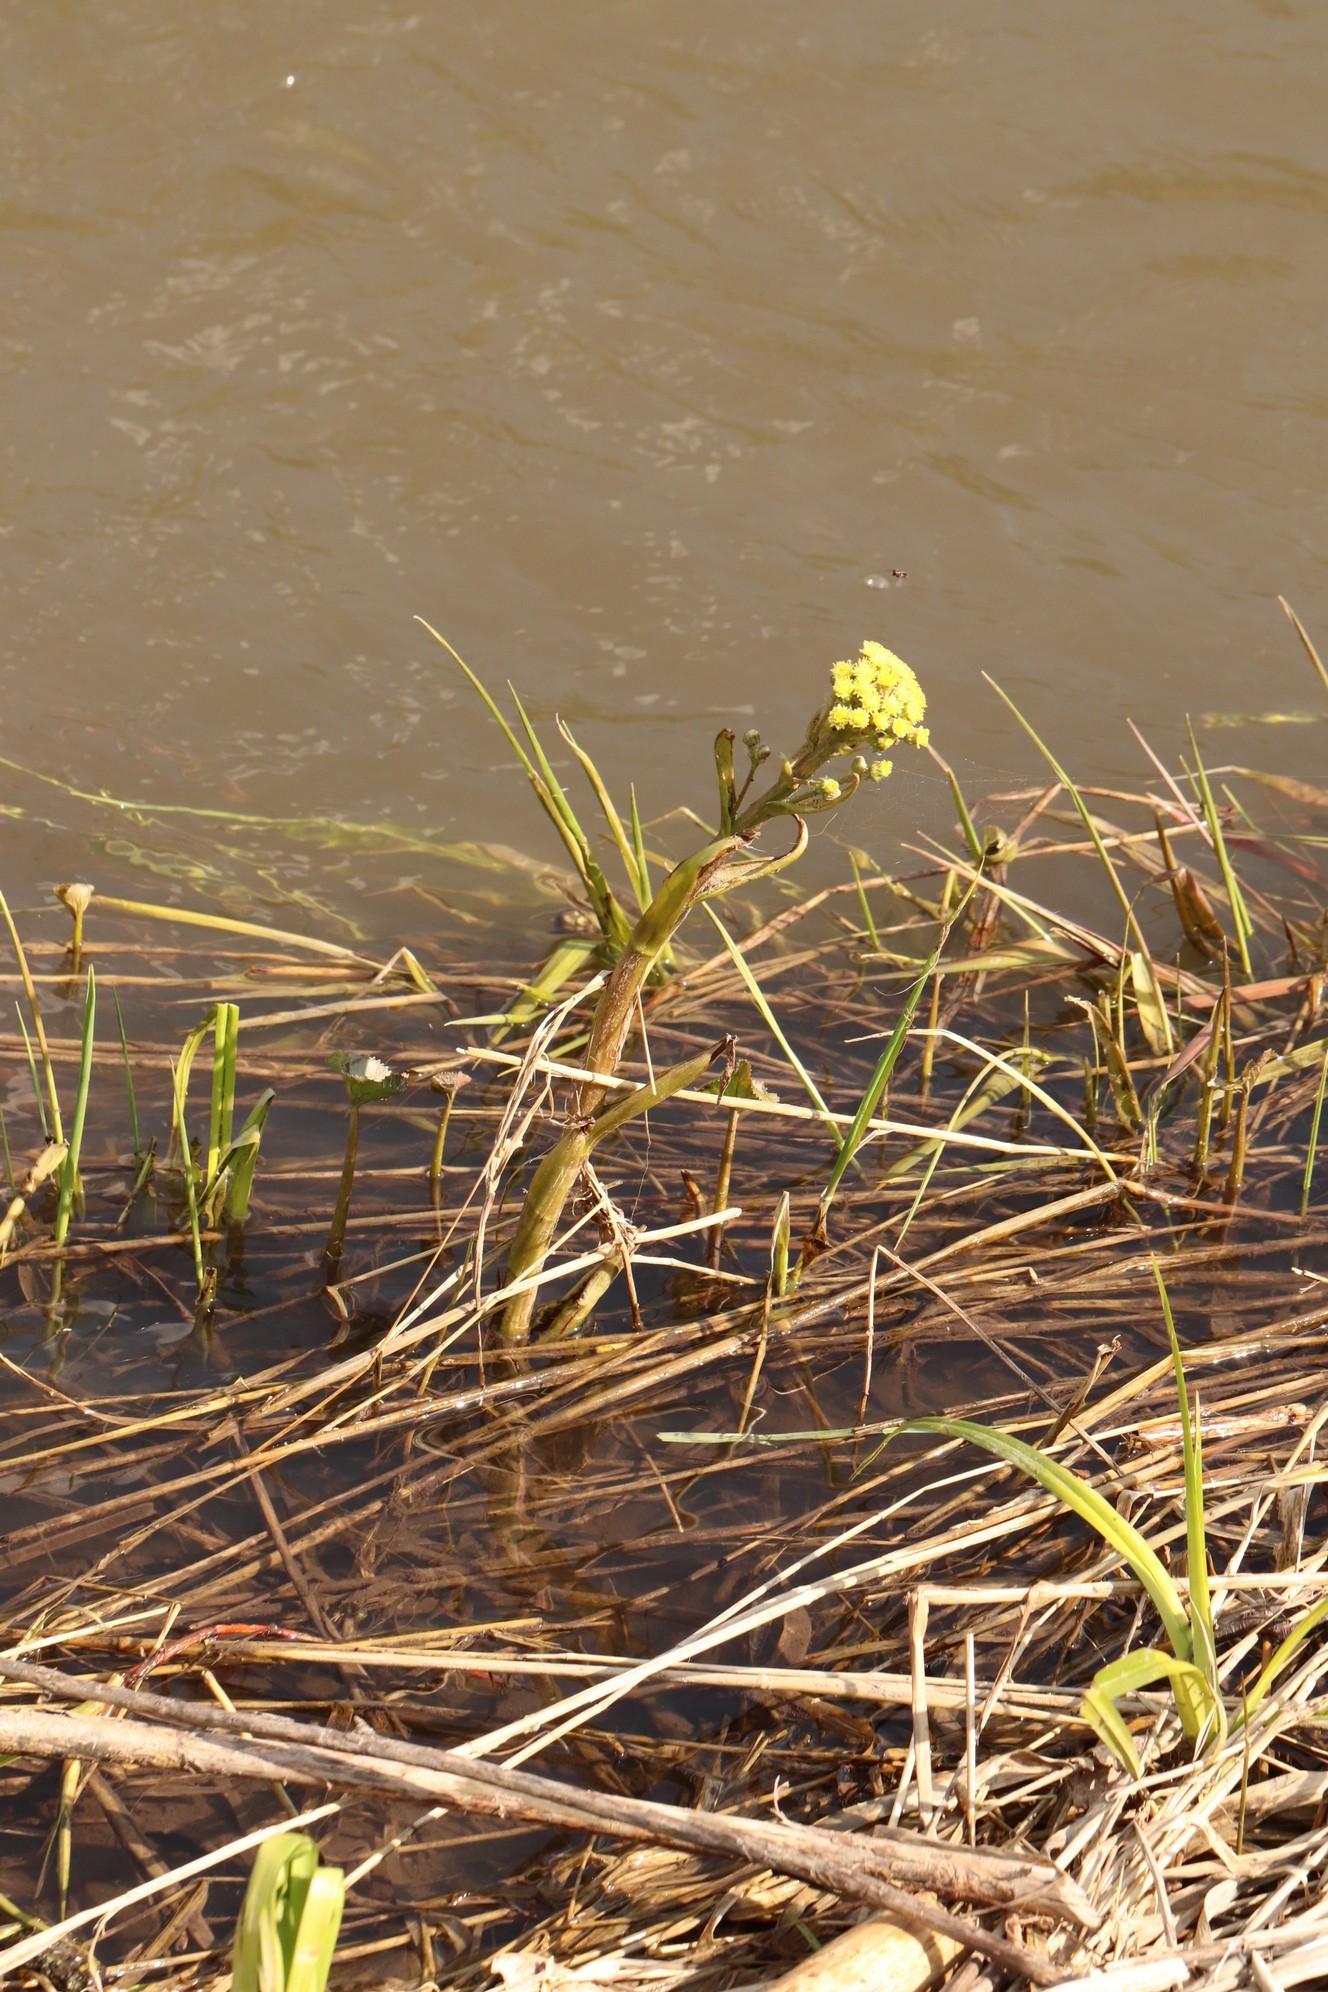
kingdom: Plantae
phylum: Tracheophyta
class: Magnoliopsida
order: Asterales
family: Asteraceae
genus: Petasites
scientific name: Petasites radiatus
